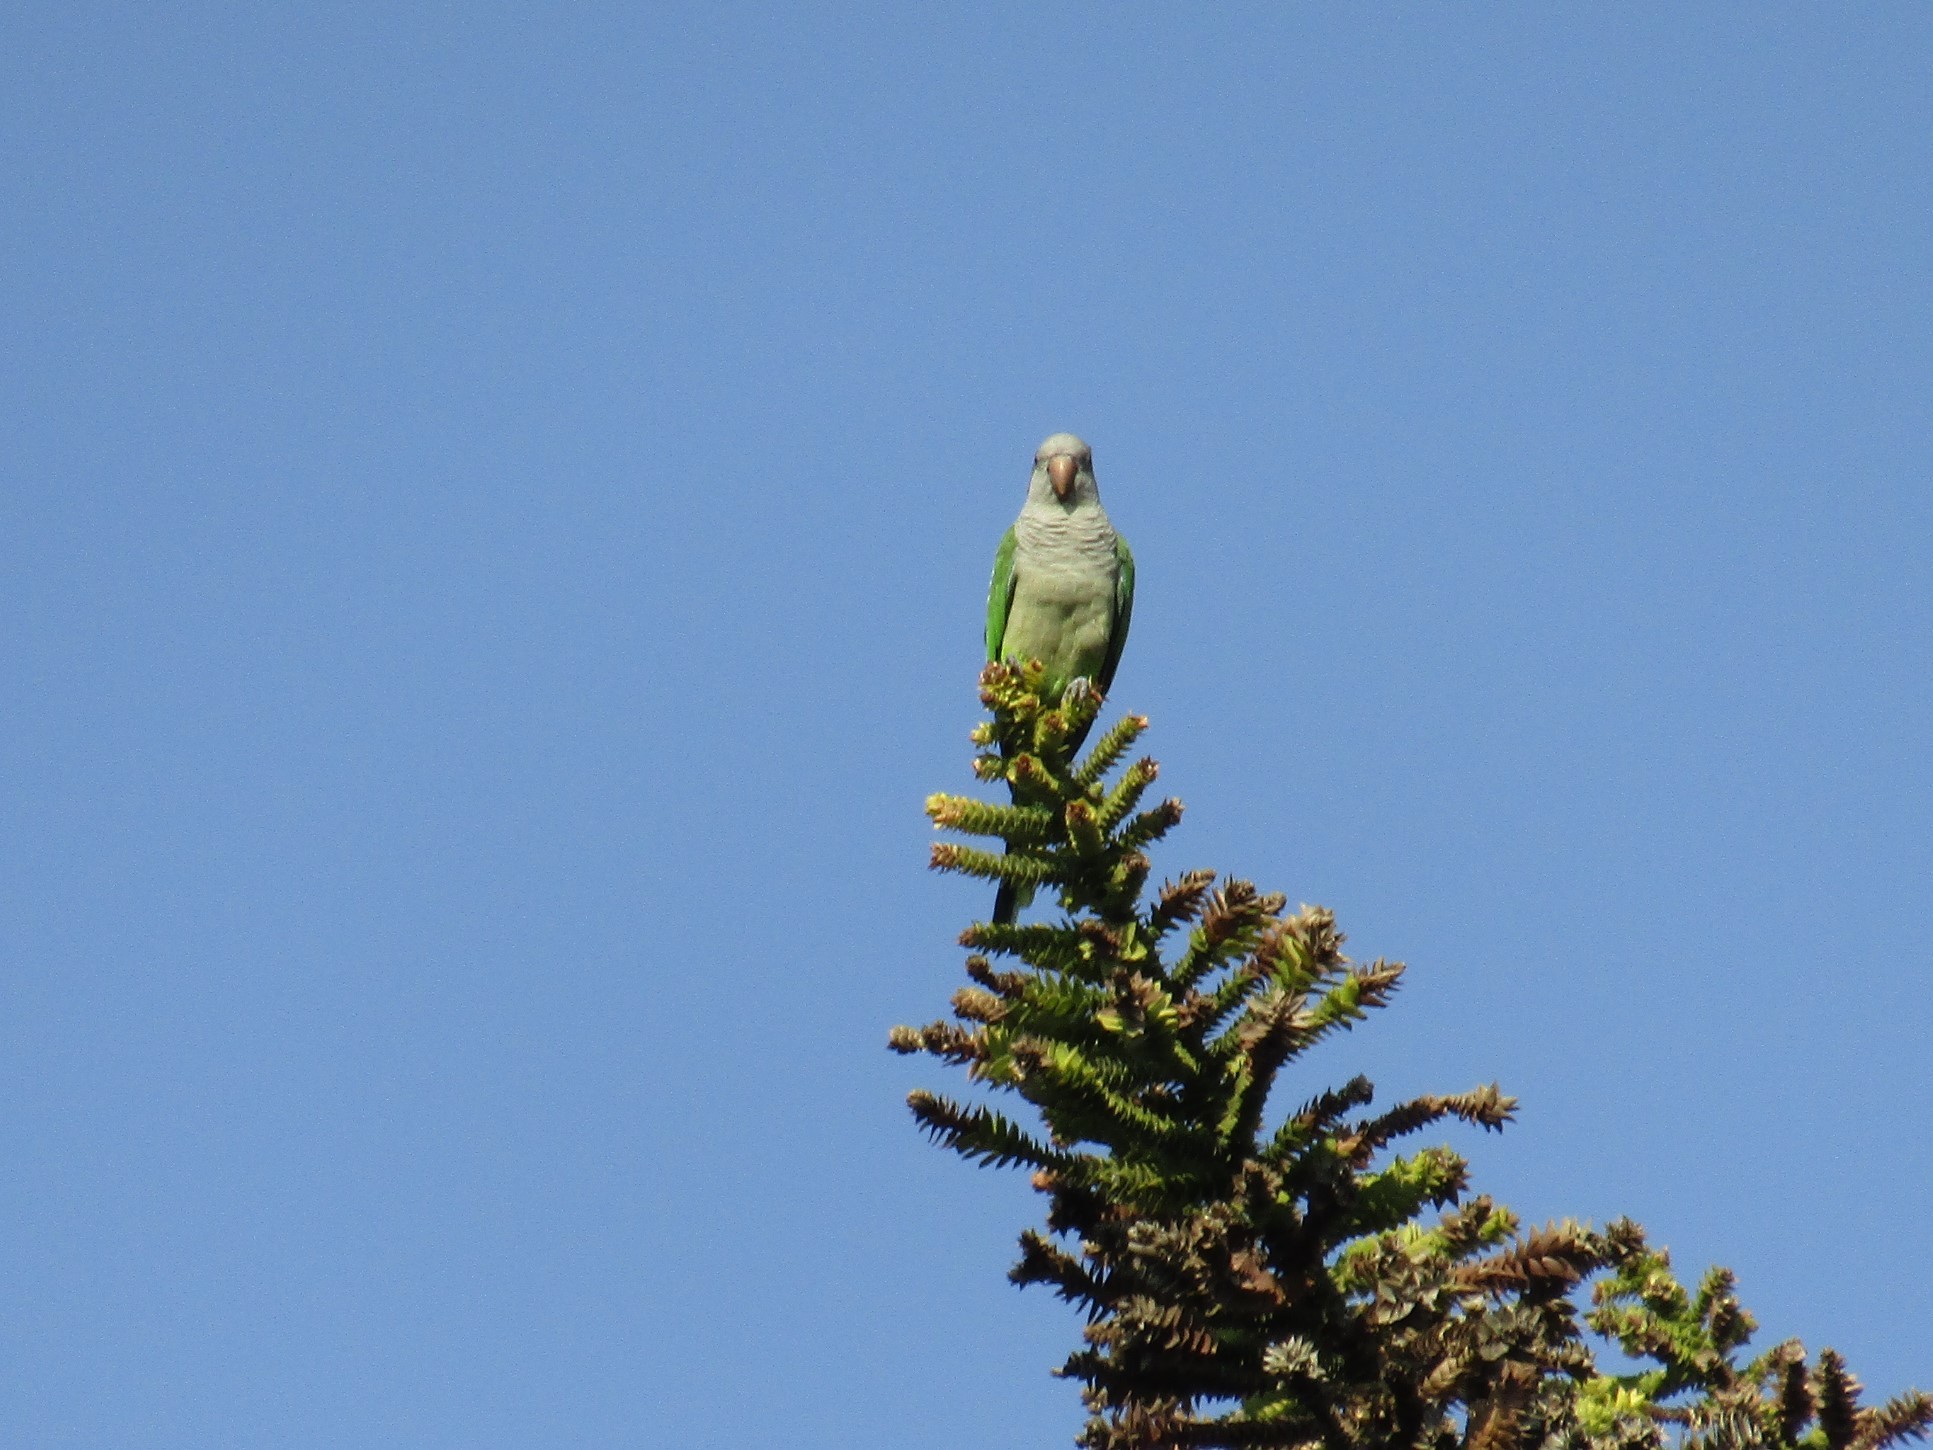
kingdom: Animalia
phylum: Chordata
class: Aves
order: Psittaciformes
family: Psittacidae
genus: Myiopsitta
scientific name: Myiopsitta monachus
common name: Monk parakeet
